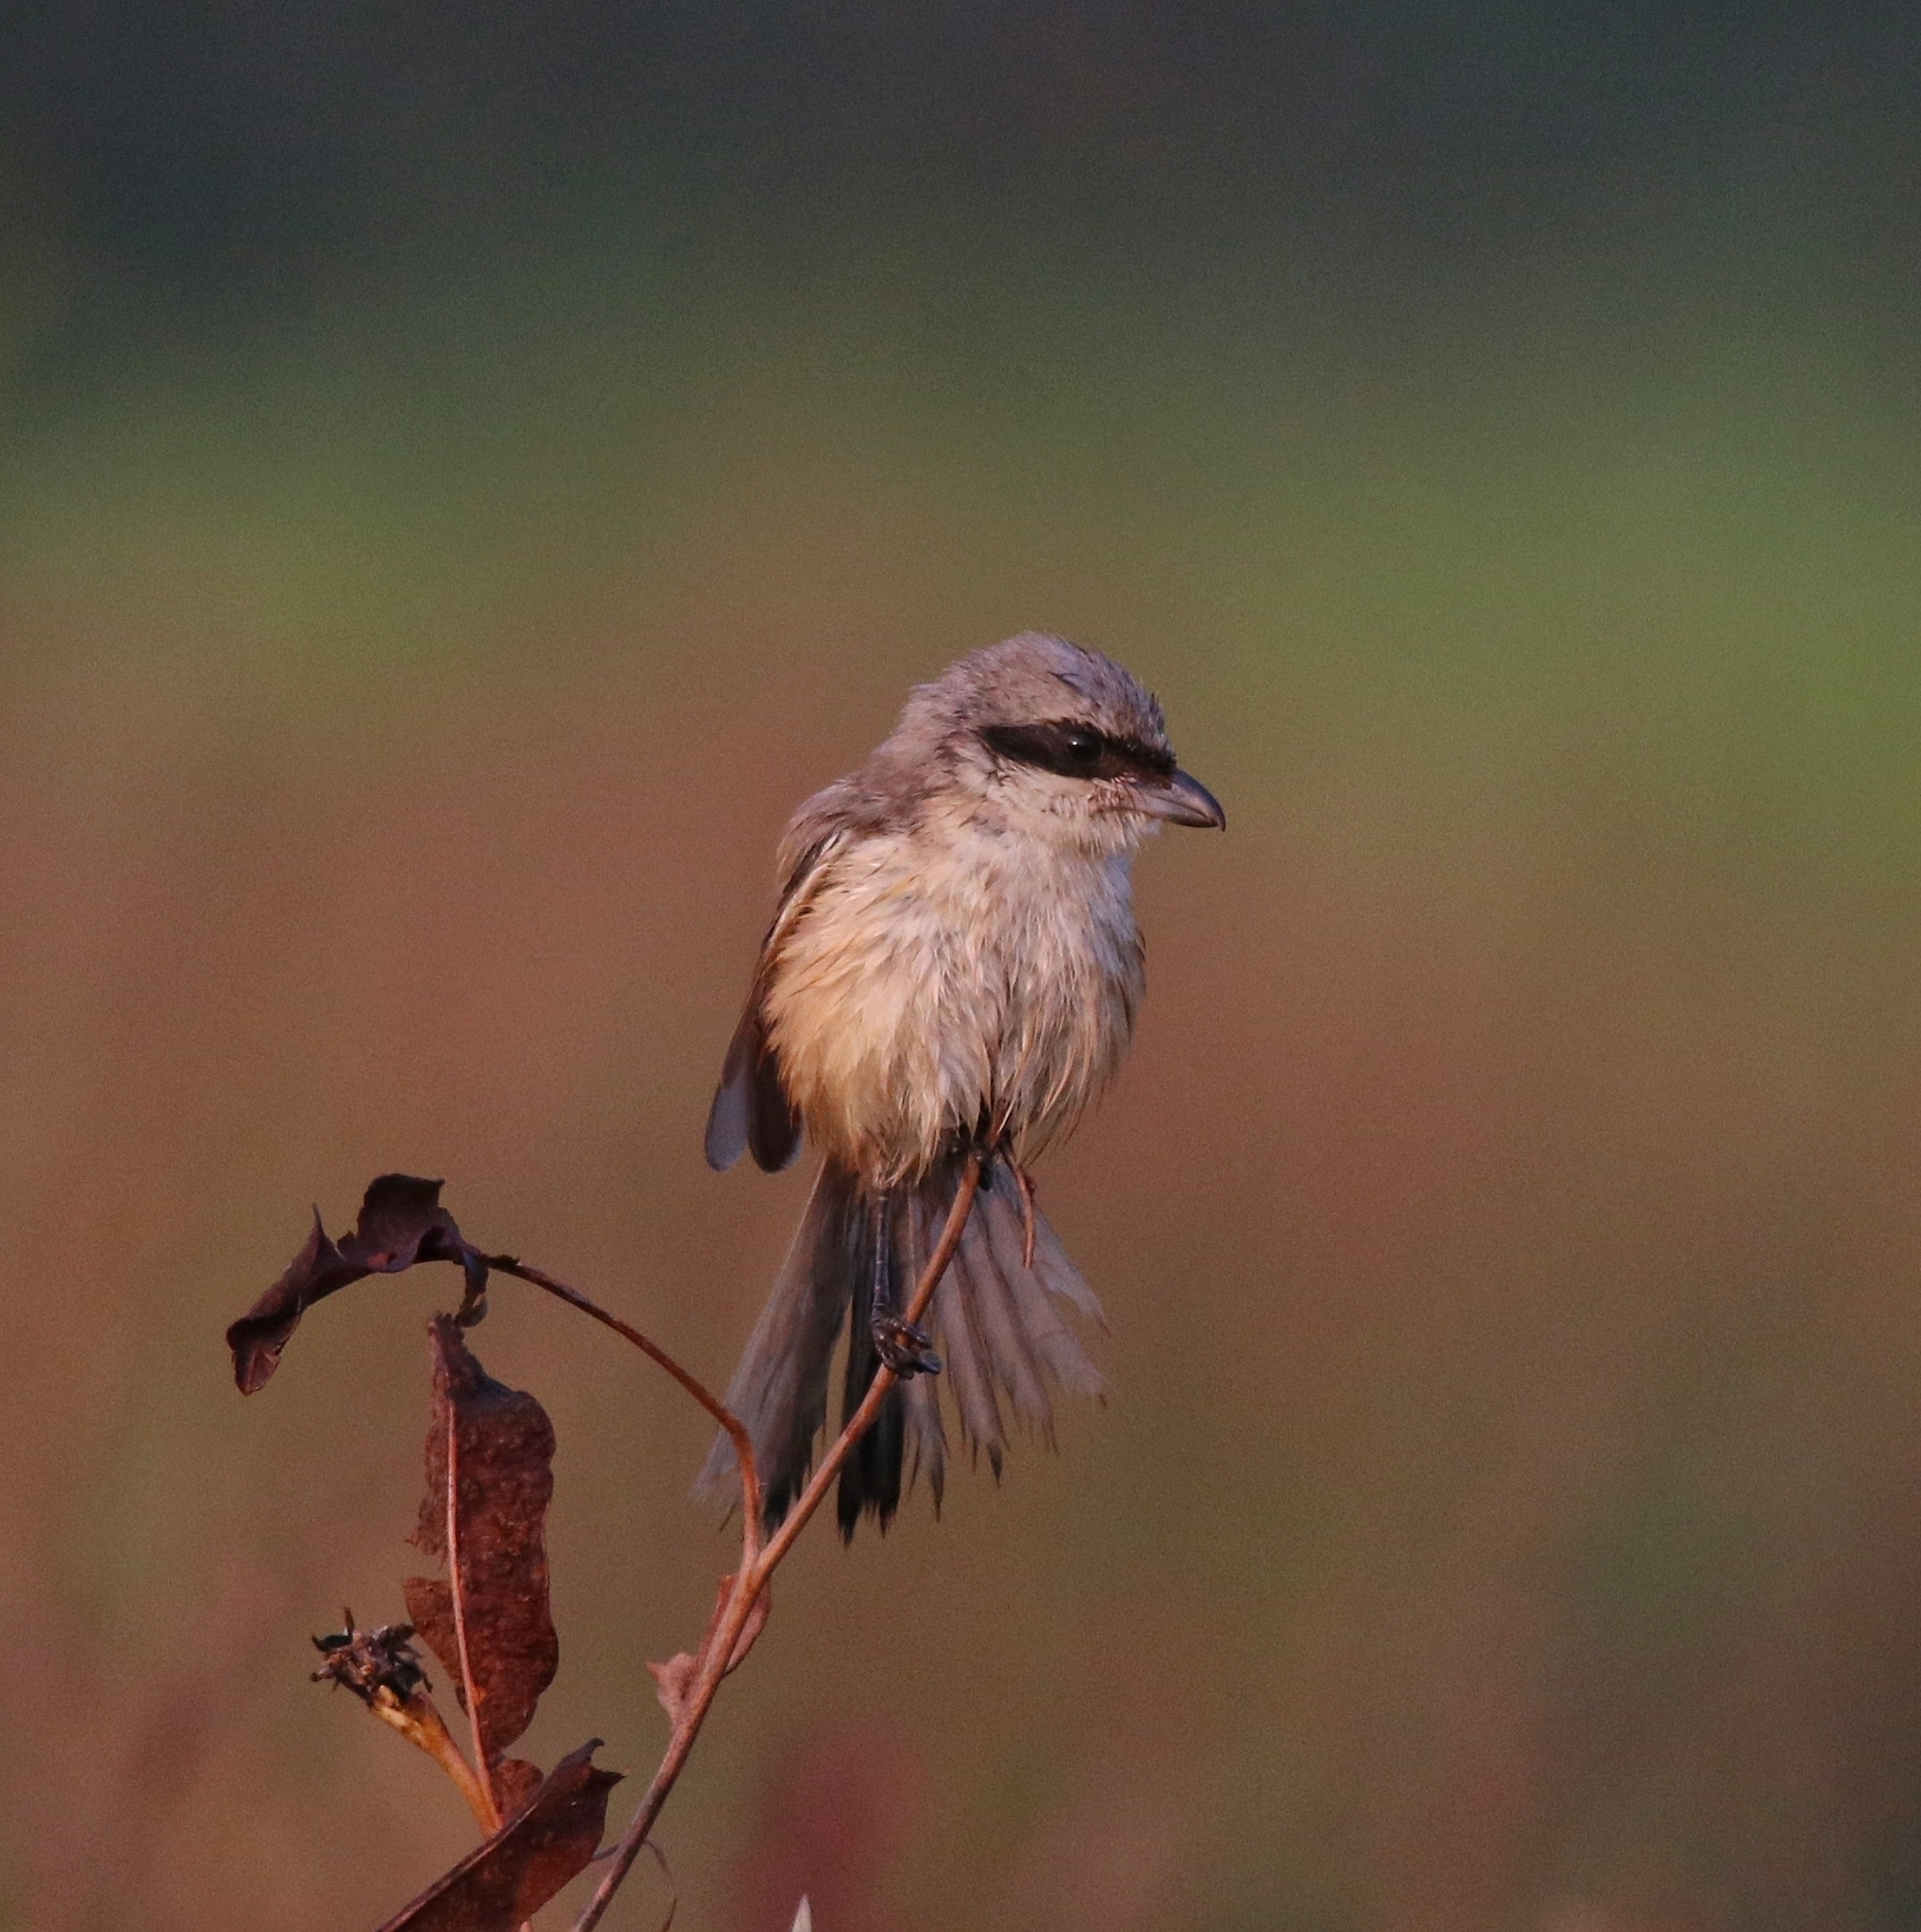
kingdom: Animalia
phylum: Chordata
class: Aves
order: Passeriformes
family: Laniidae
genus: Lanius
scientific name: Lanius schach
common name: Long-tailed shrike
